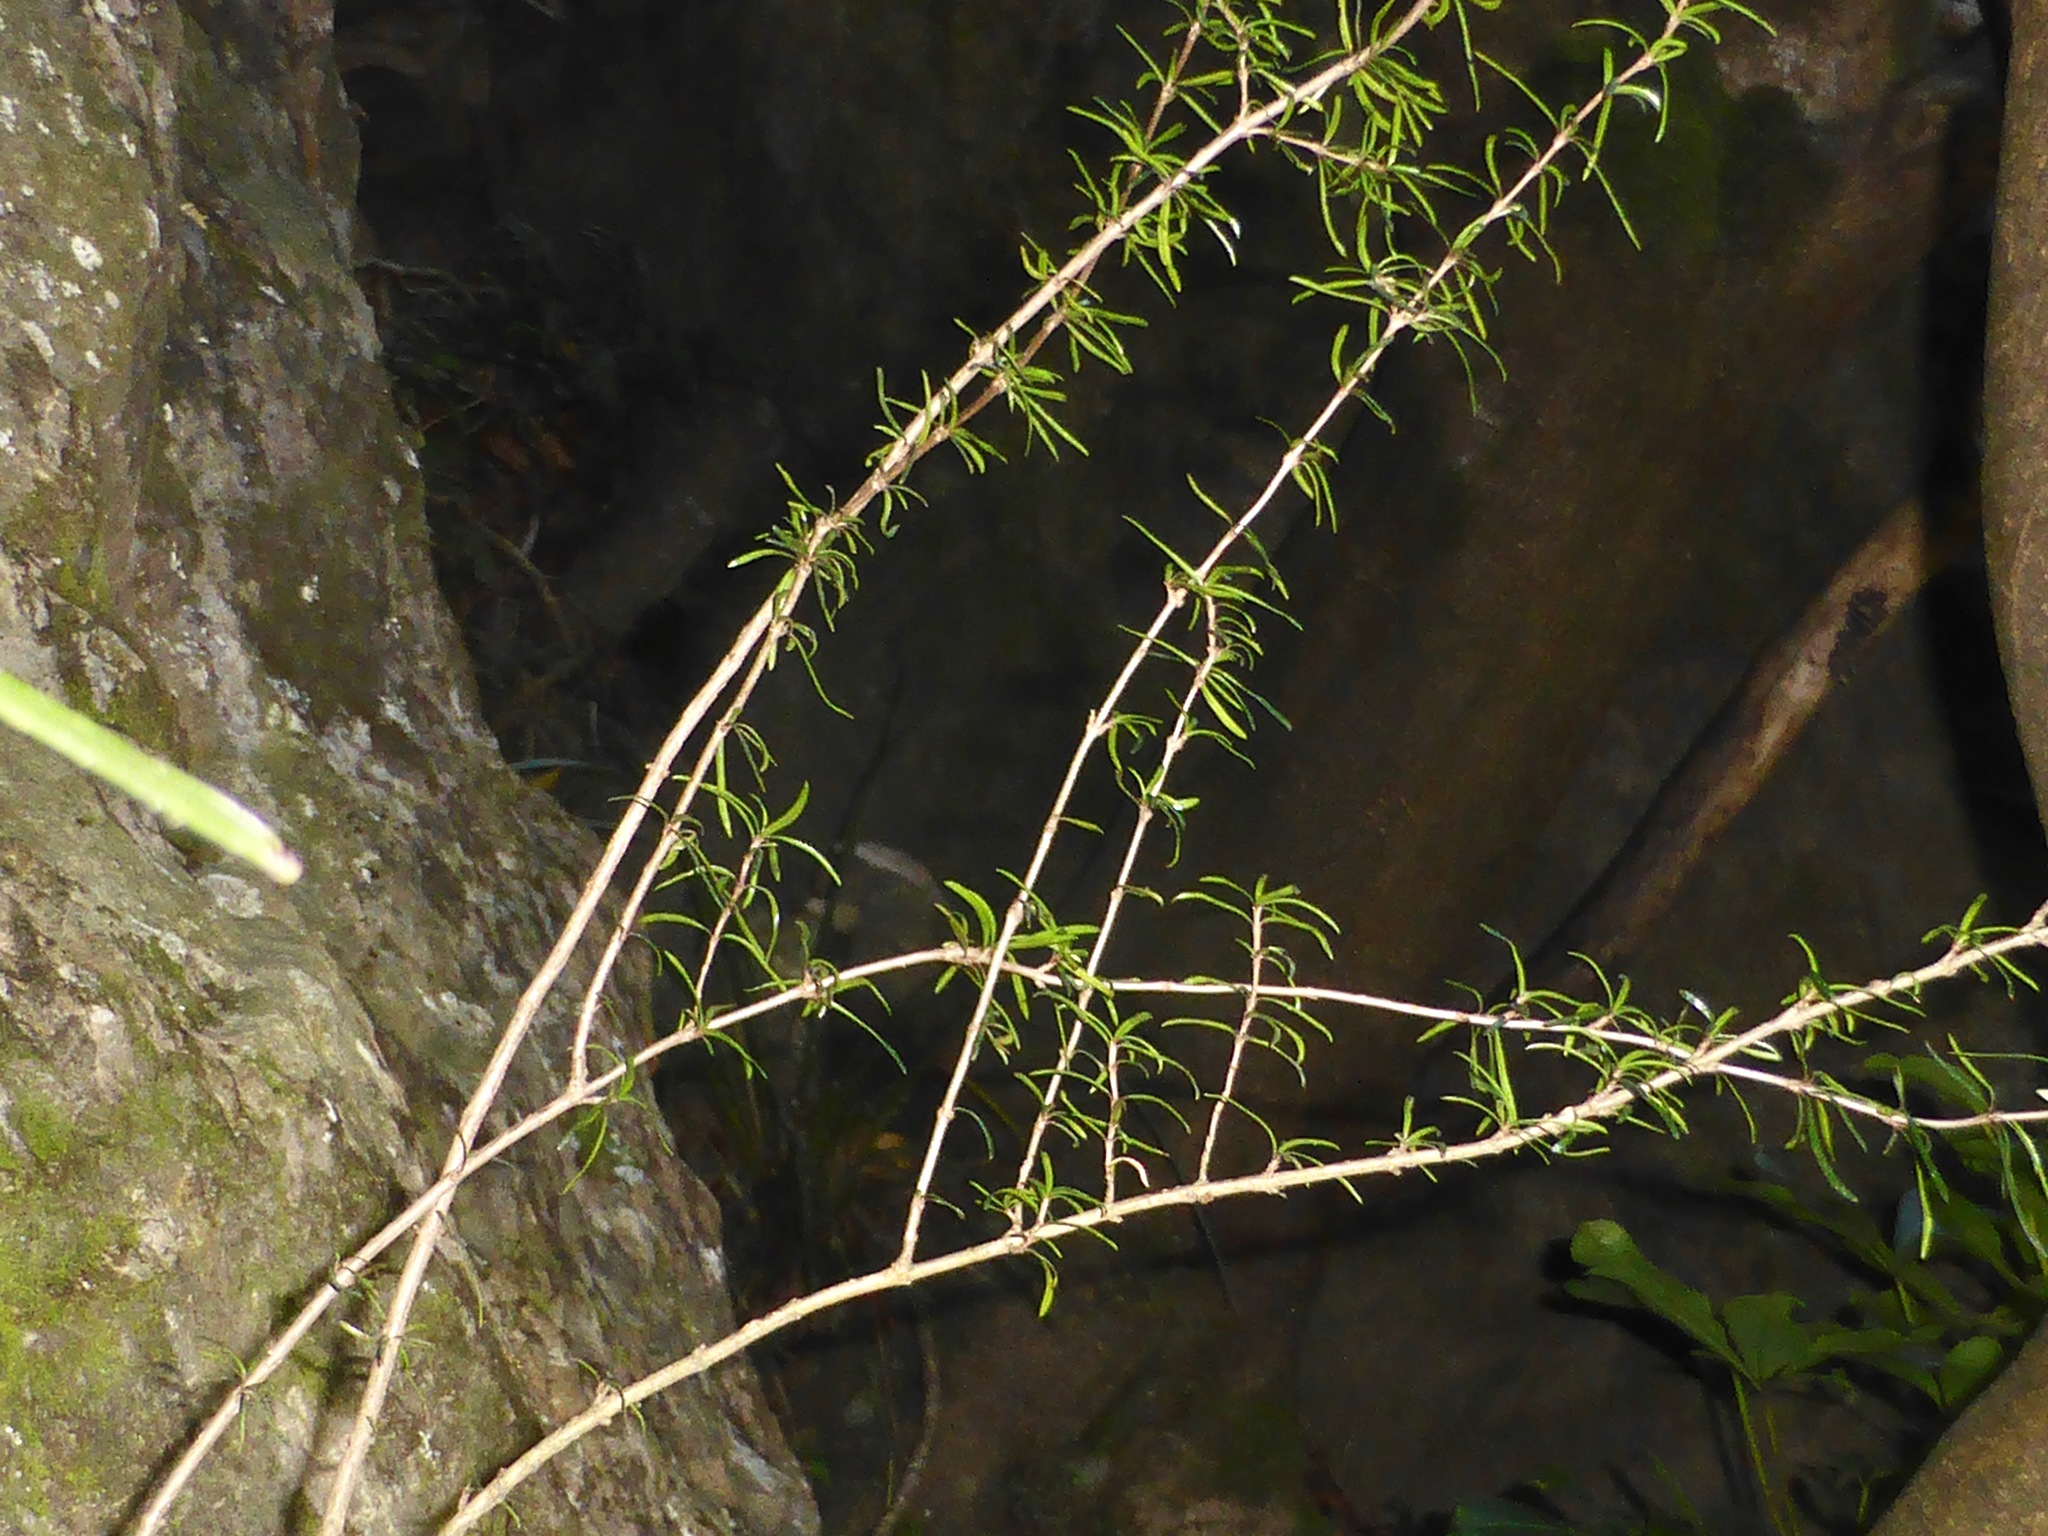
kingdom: Plantae
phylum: Tracheophyta
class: Magnoliopsida
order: Gentianales
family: Rubiaceae
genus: Coprosma
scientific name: Coprosma linariifolia
